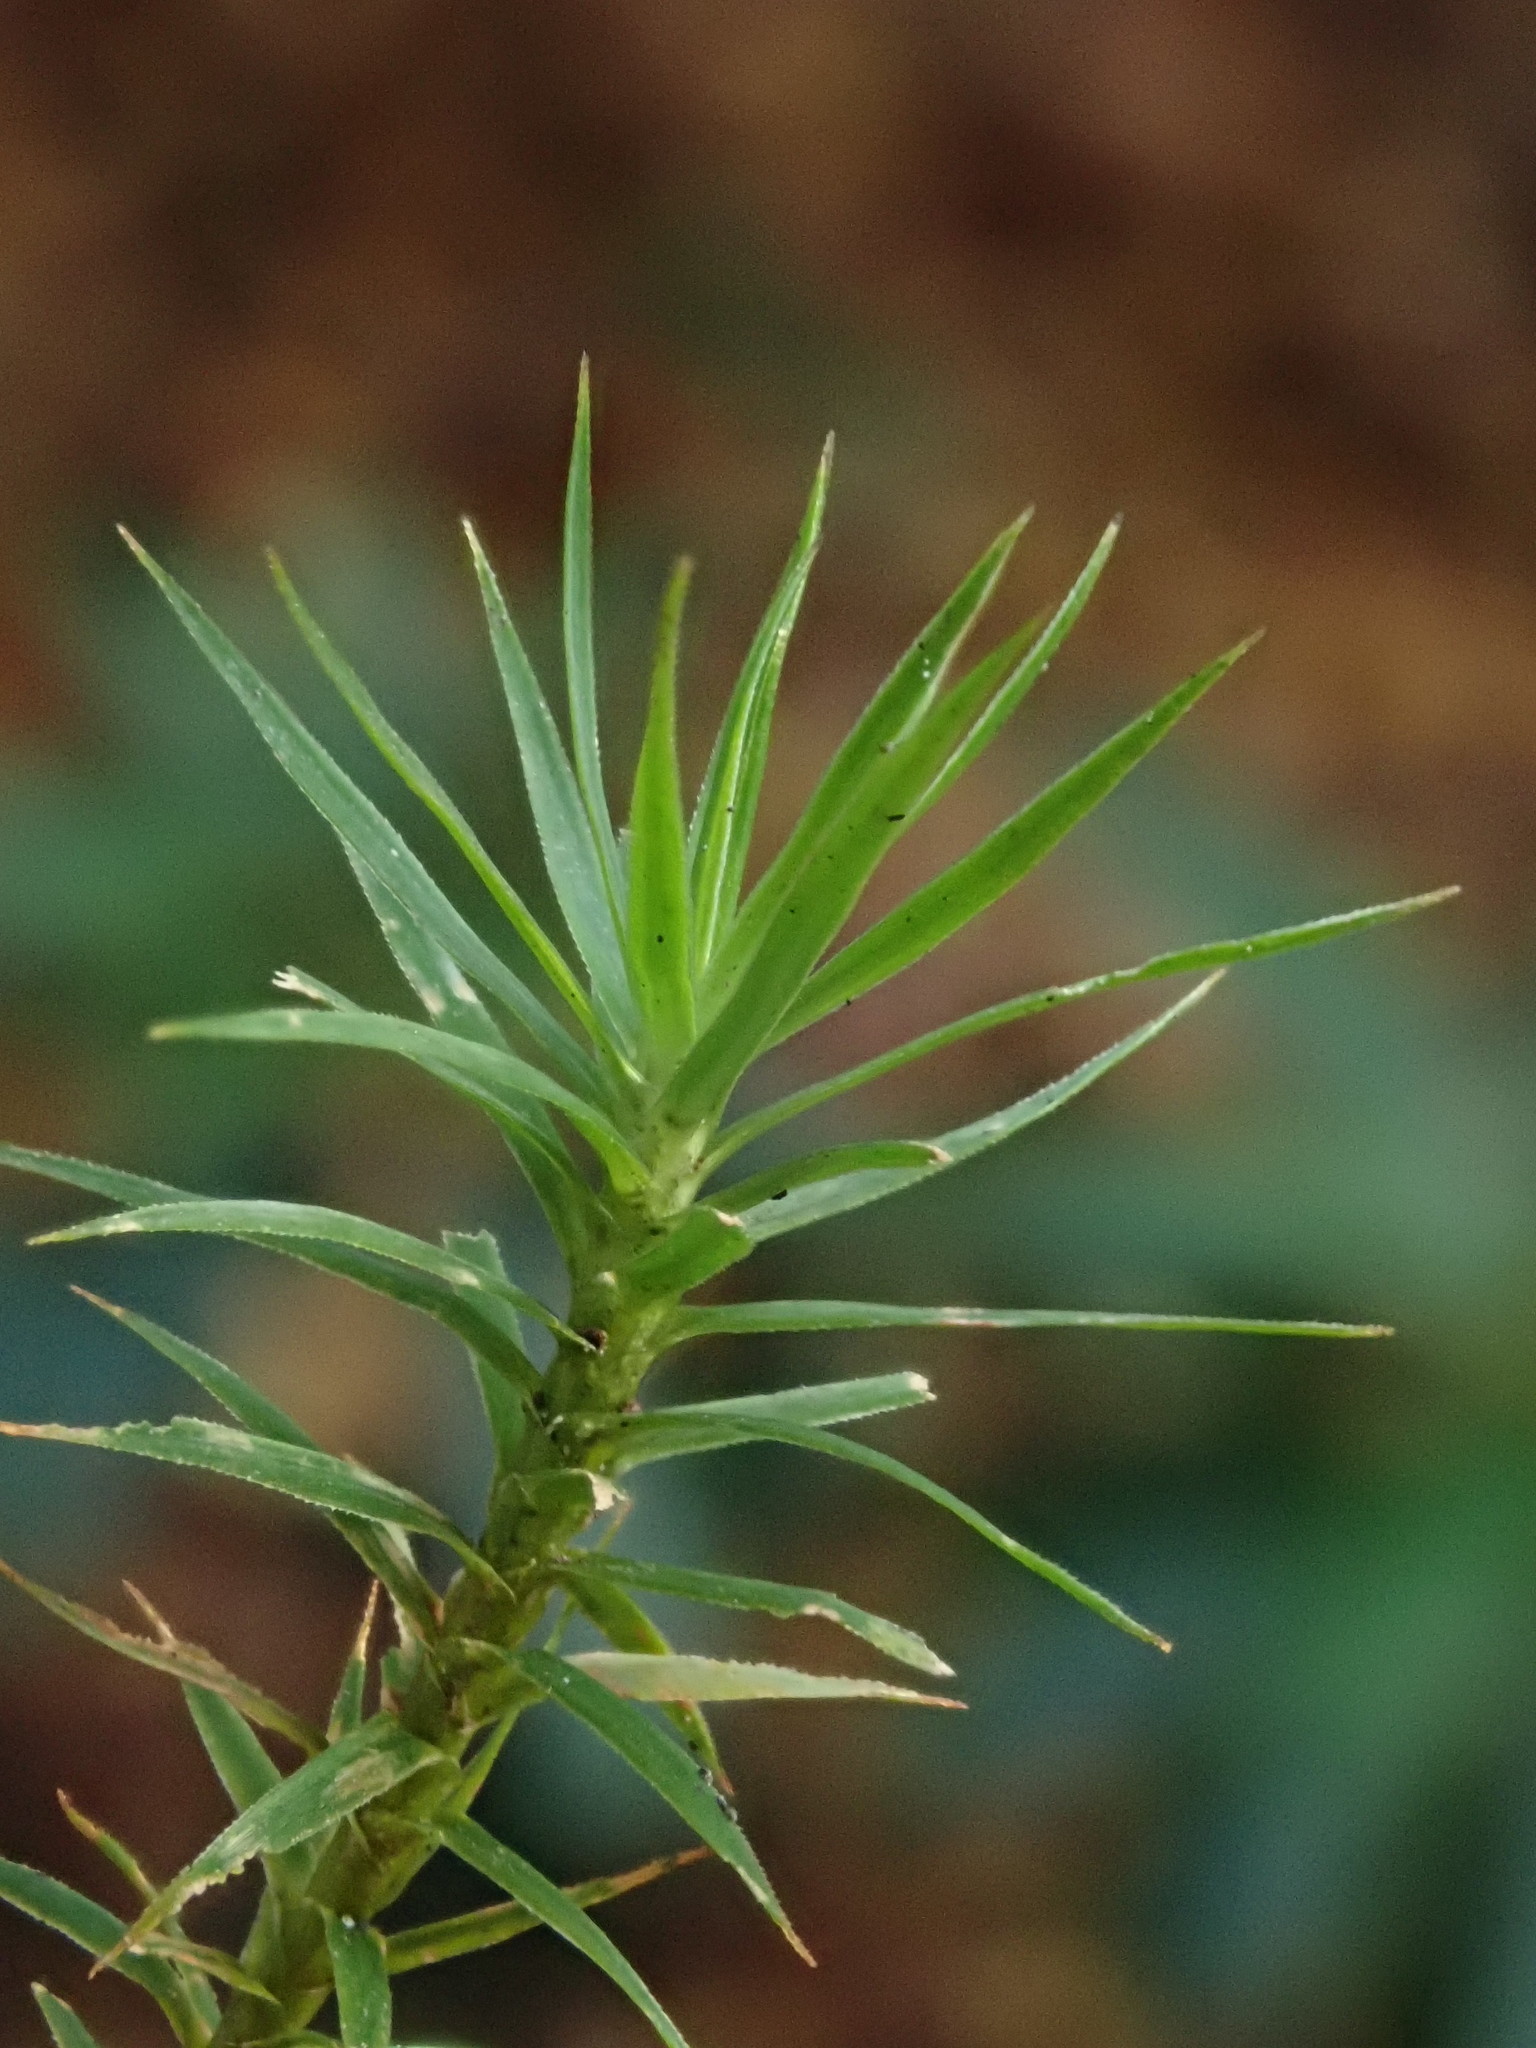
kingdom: Plantae
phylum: Bryophyta
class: Polytrichopsida
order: Polytrichales
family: Polytrichaceae
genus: Polytrichum
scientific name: Polytrichum formosum
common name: Bank haircap moss
